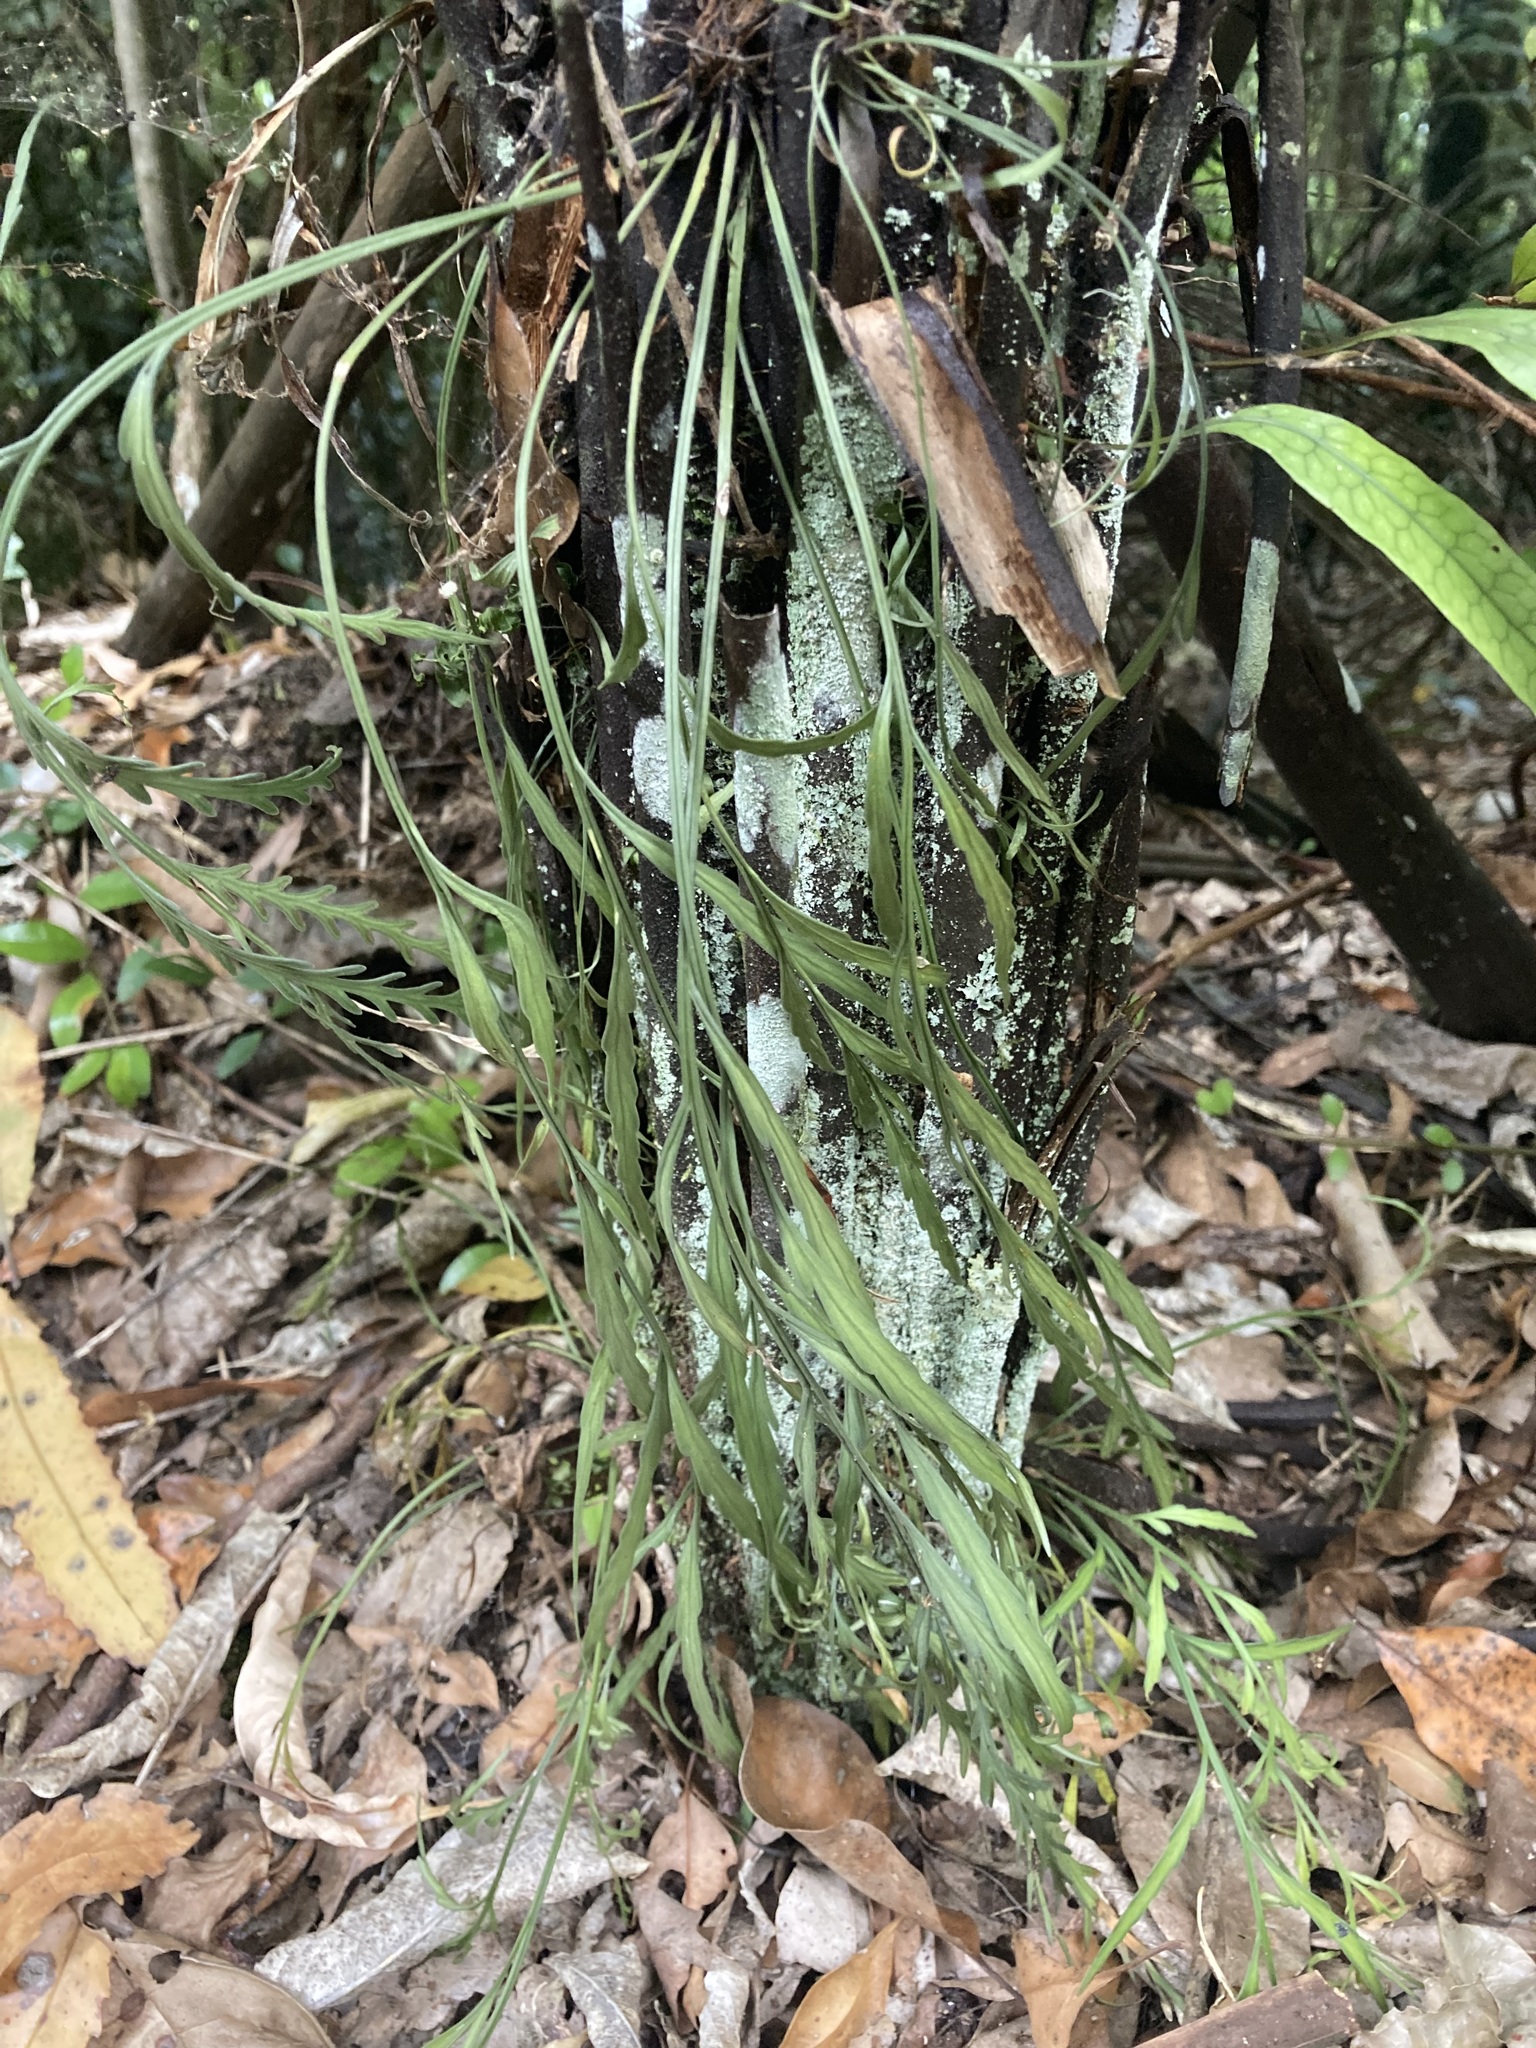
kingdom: Plantae
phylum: Tracheophyta
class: Polypodiopsida
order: Polypodiales
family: Aspleniaceae
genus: Asplenium
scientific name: Asplenium flaccidum
